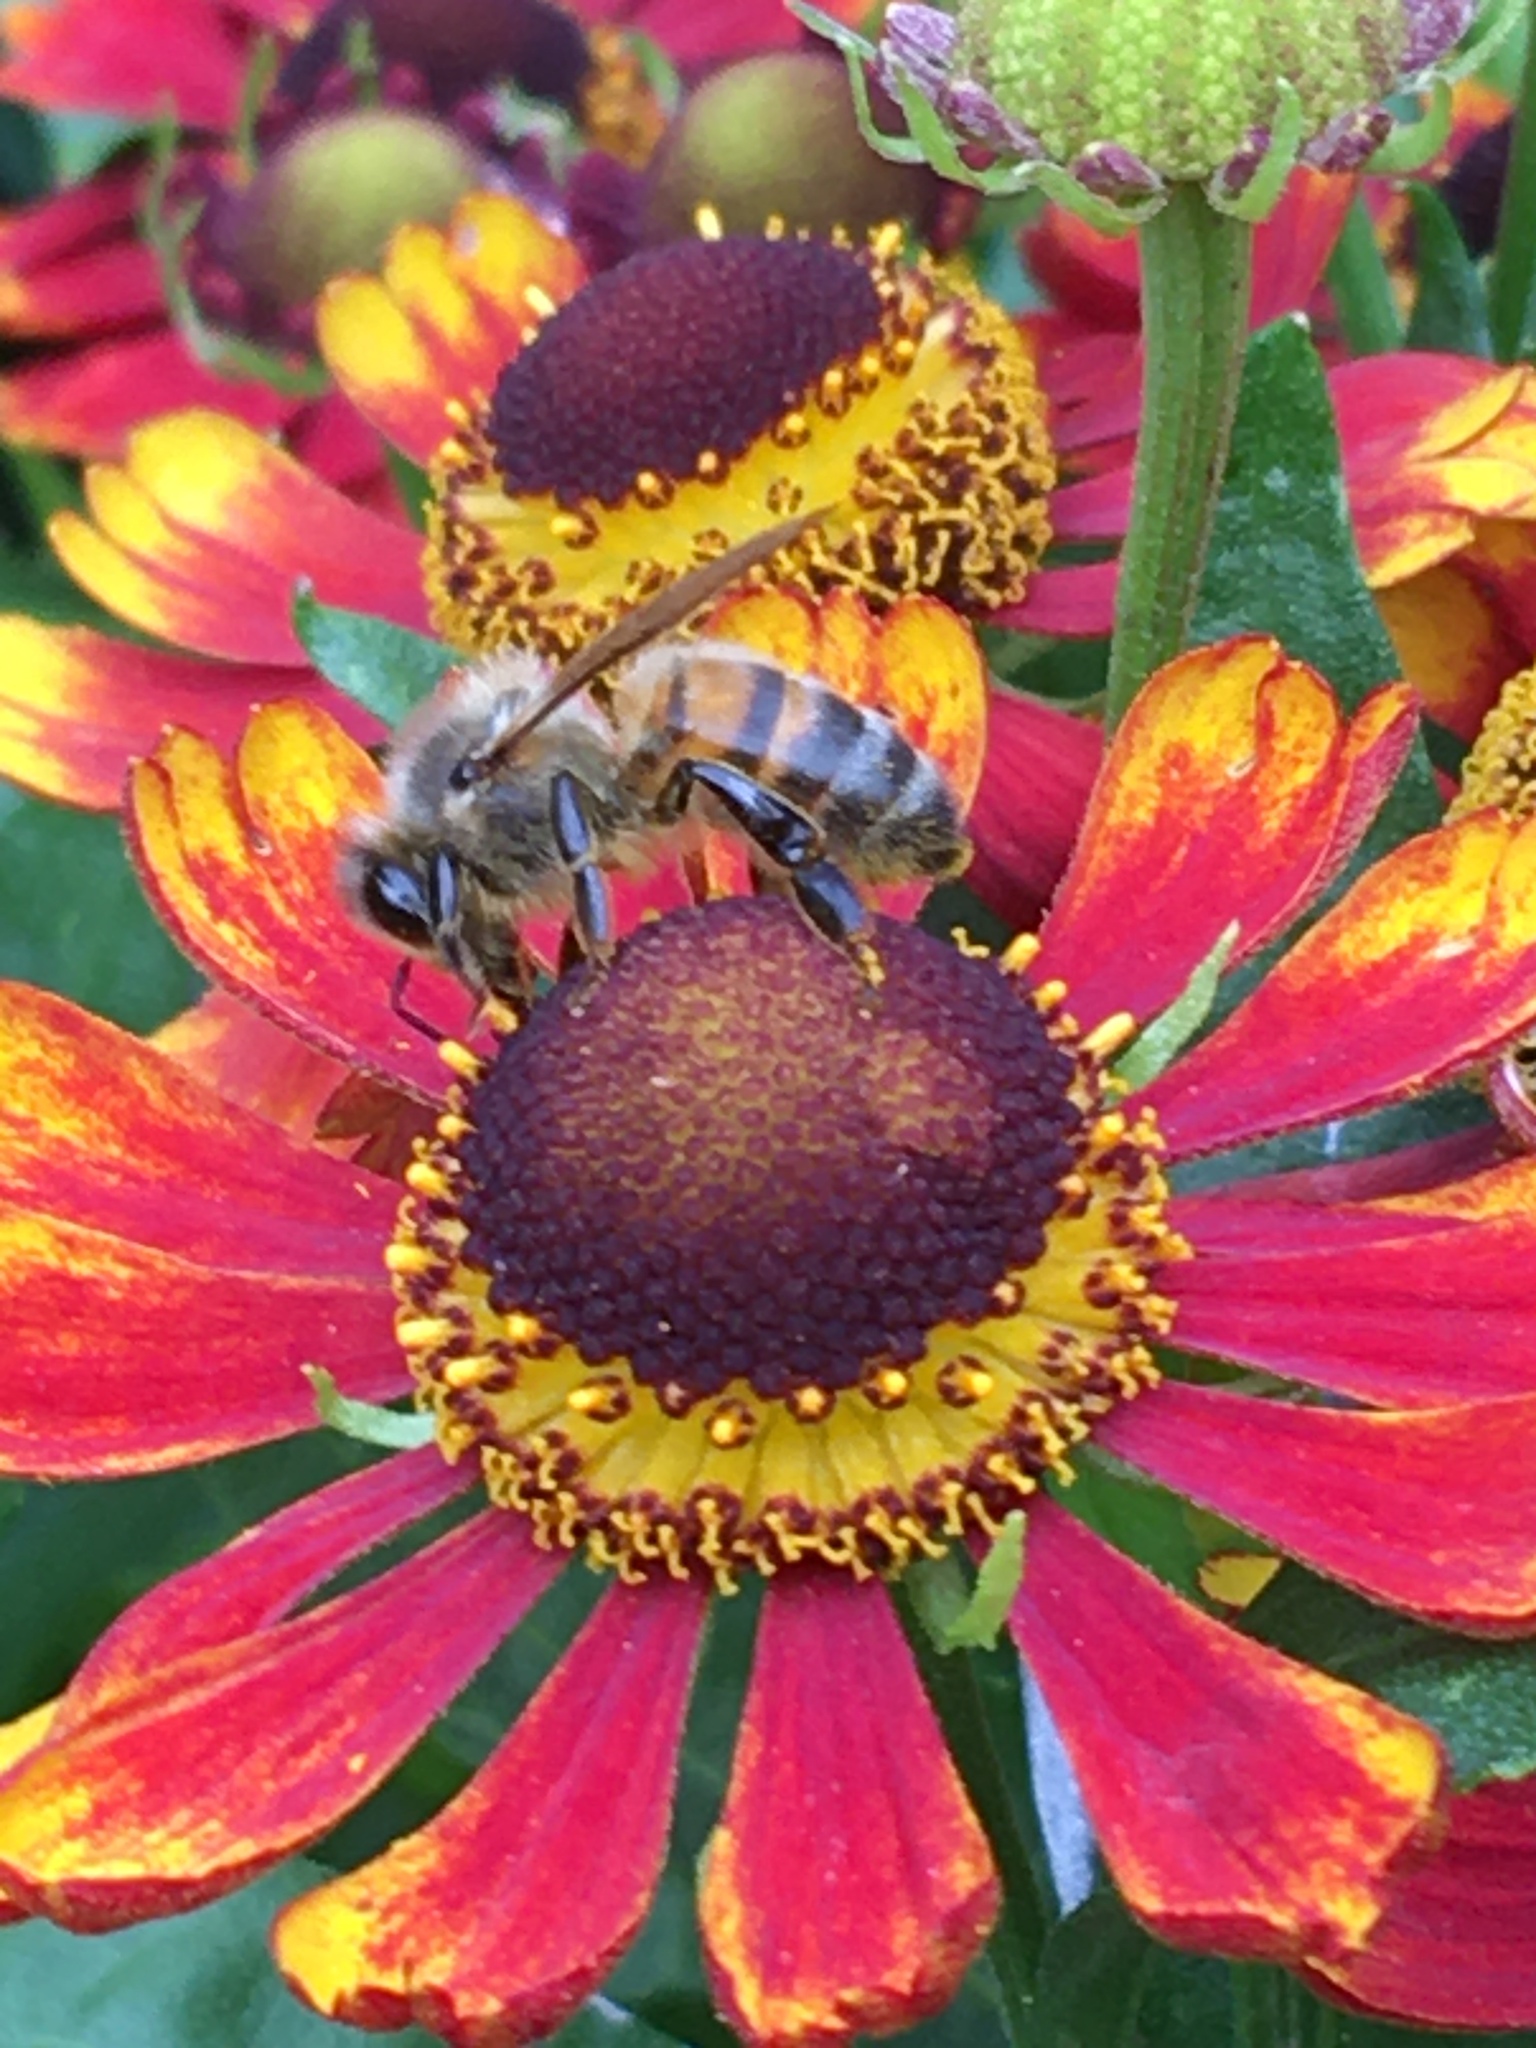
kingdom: Animalia
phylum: Arthropoda
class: Insecta
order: Hymenoptera
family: Apidae
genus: Apis
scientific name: Apis mellifera
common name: Honey bee
